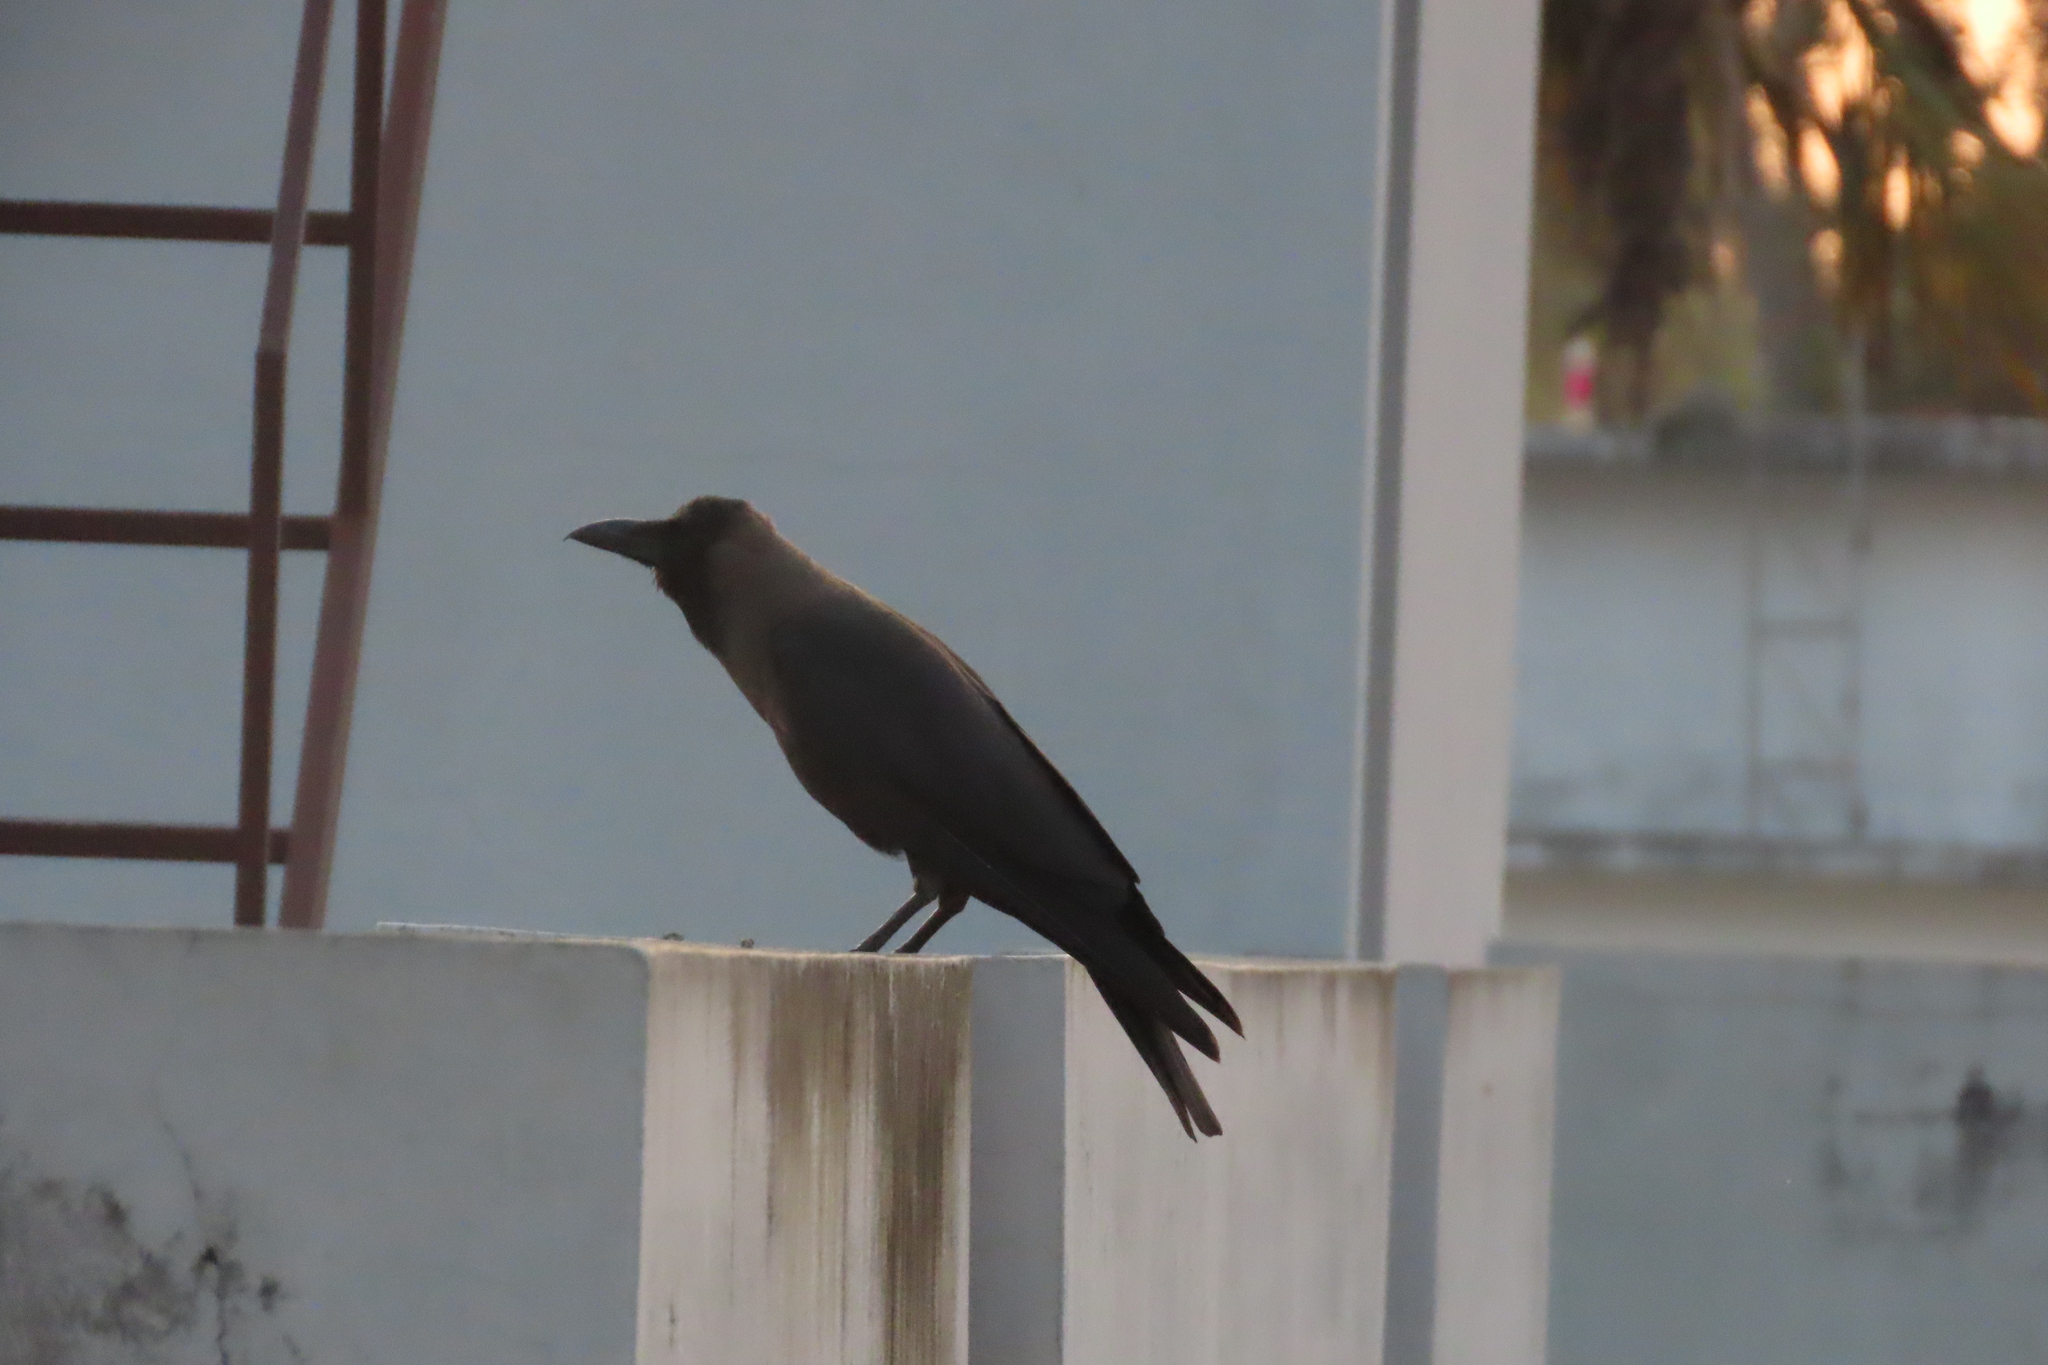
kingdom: Animalia
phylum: Chordata
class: Aves
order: Passeriformes
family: Corvidae
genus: Corvus
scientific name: Corvus splendens
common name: House crow
